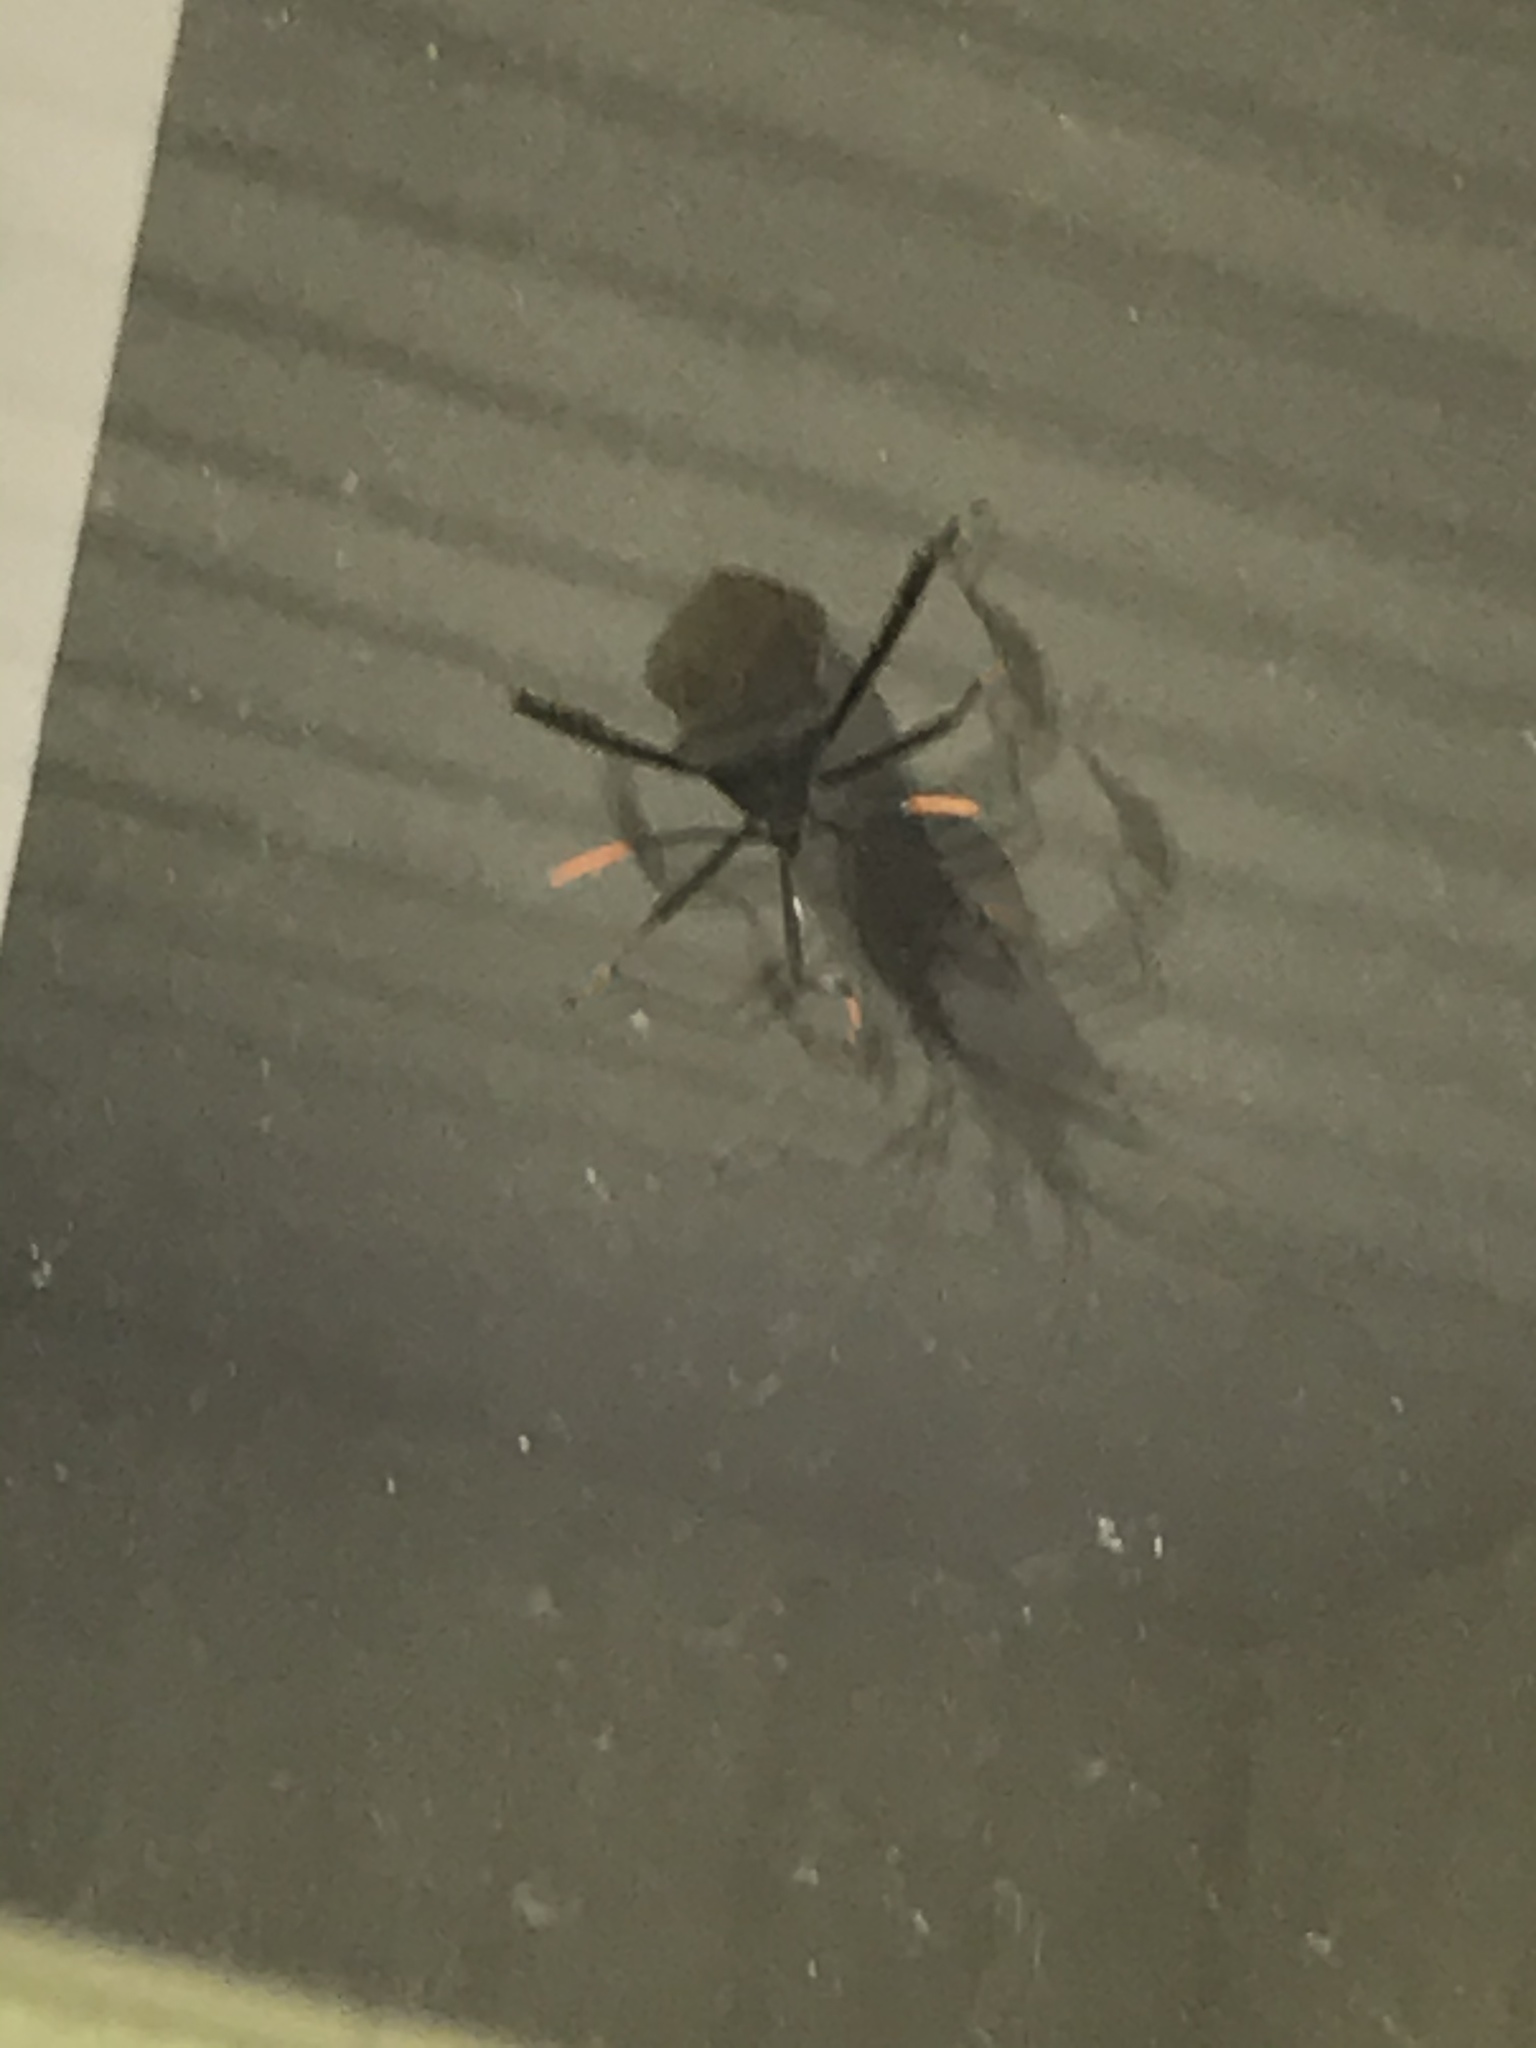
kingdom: Animalia
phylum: Arthropoda
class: Insecta
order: Hemiptera
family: Coreidae
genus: Acanthocephala
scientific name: Acanthocephala terminalis
